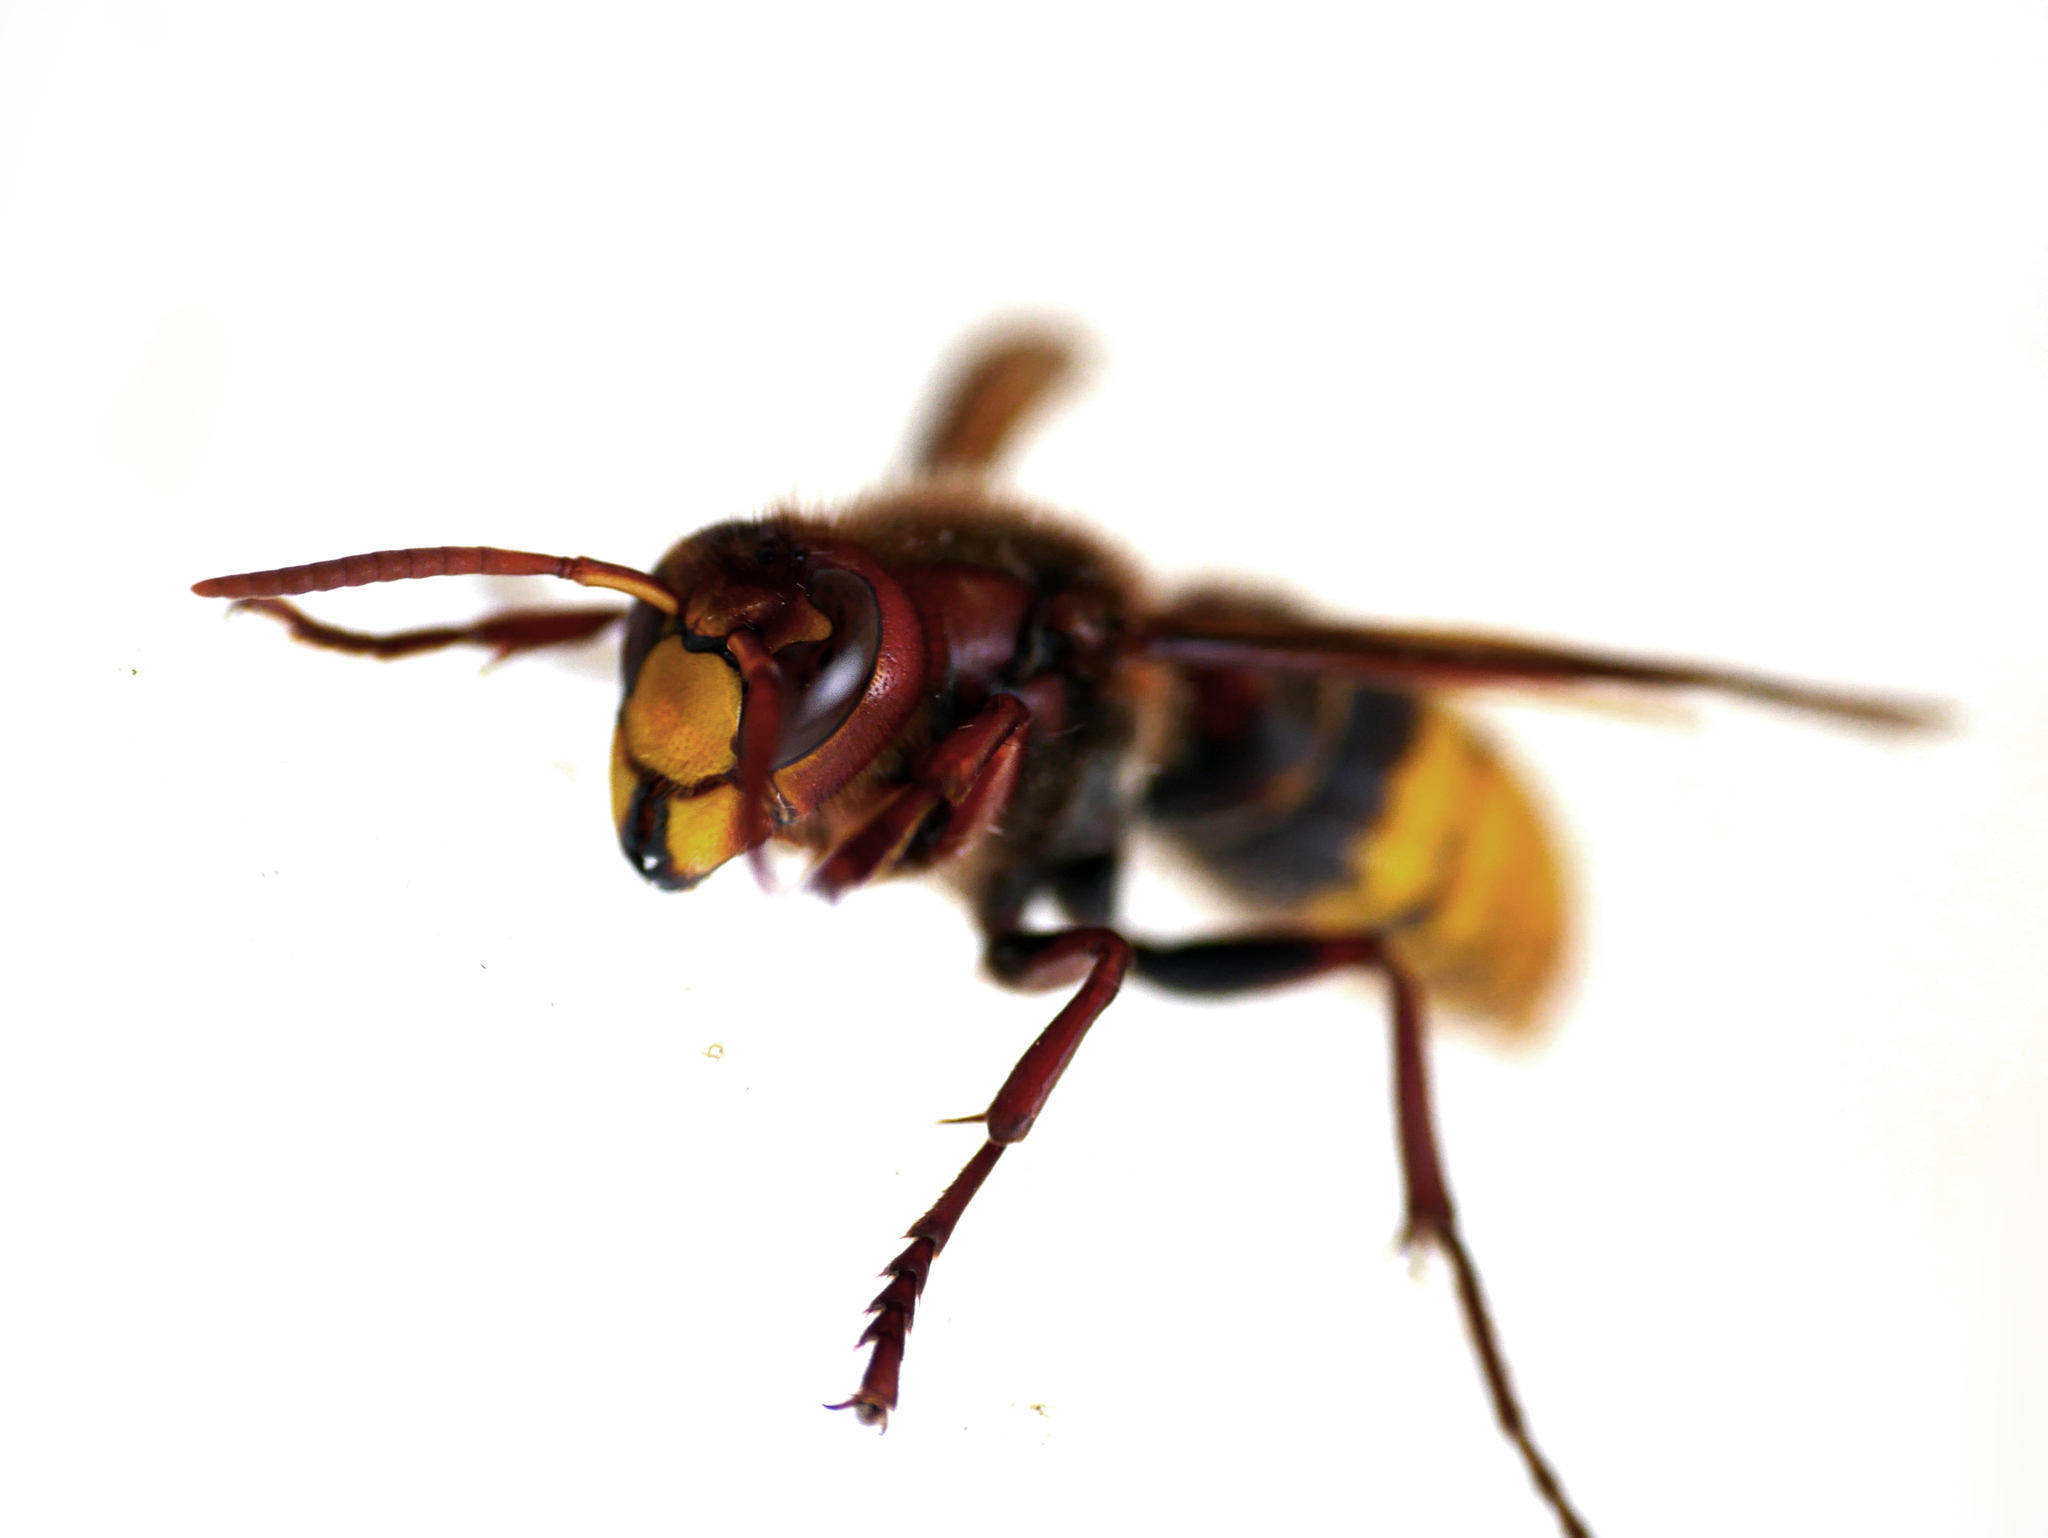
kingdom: Animalia
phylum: Arthropoda
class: Insecta
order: Hymenoptera
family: Vespidae
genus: Vespa
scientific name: Vespa crabro
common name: Hornet
